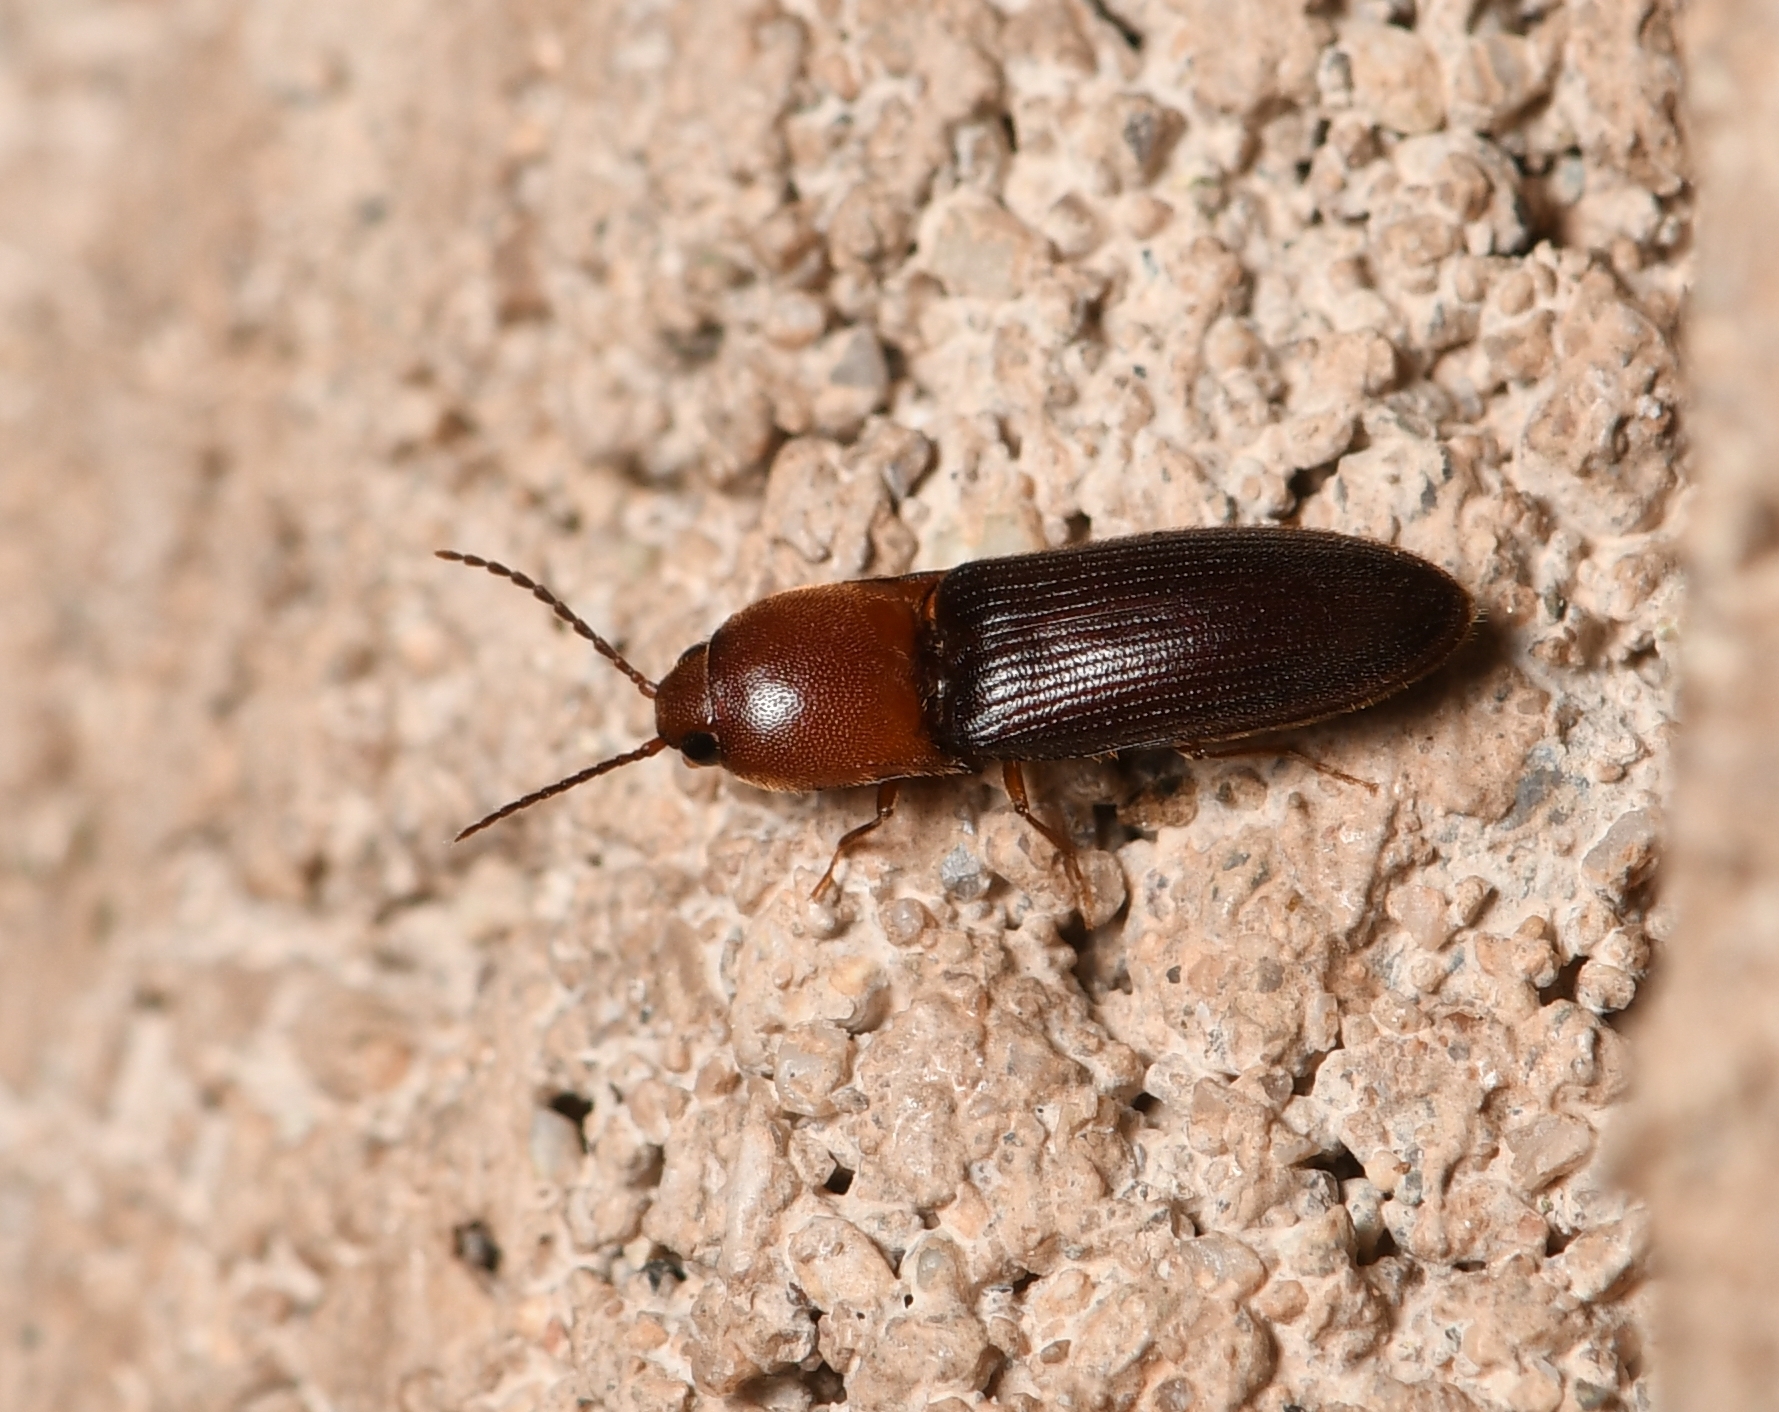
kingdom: Animalia
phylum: Arthropoda
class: Insecta
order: Coleoptera
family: Elateridae
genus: Anchastus
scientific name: Anchastus
